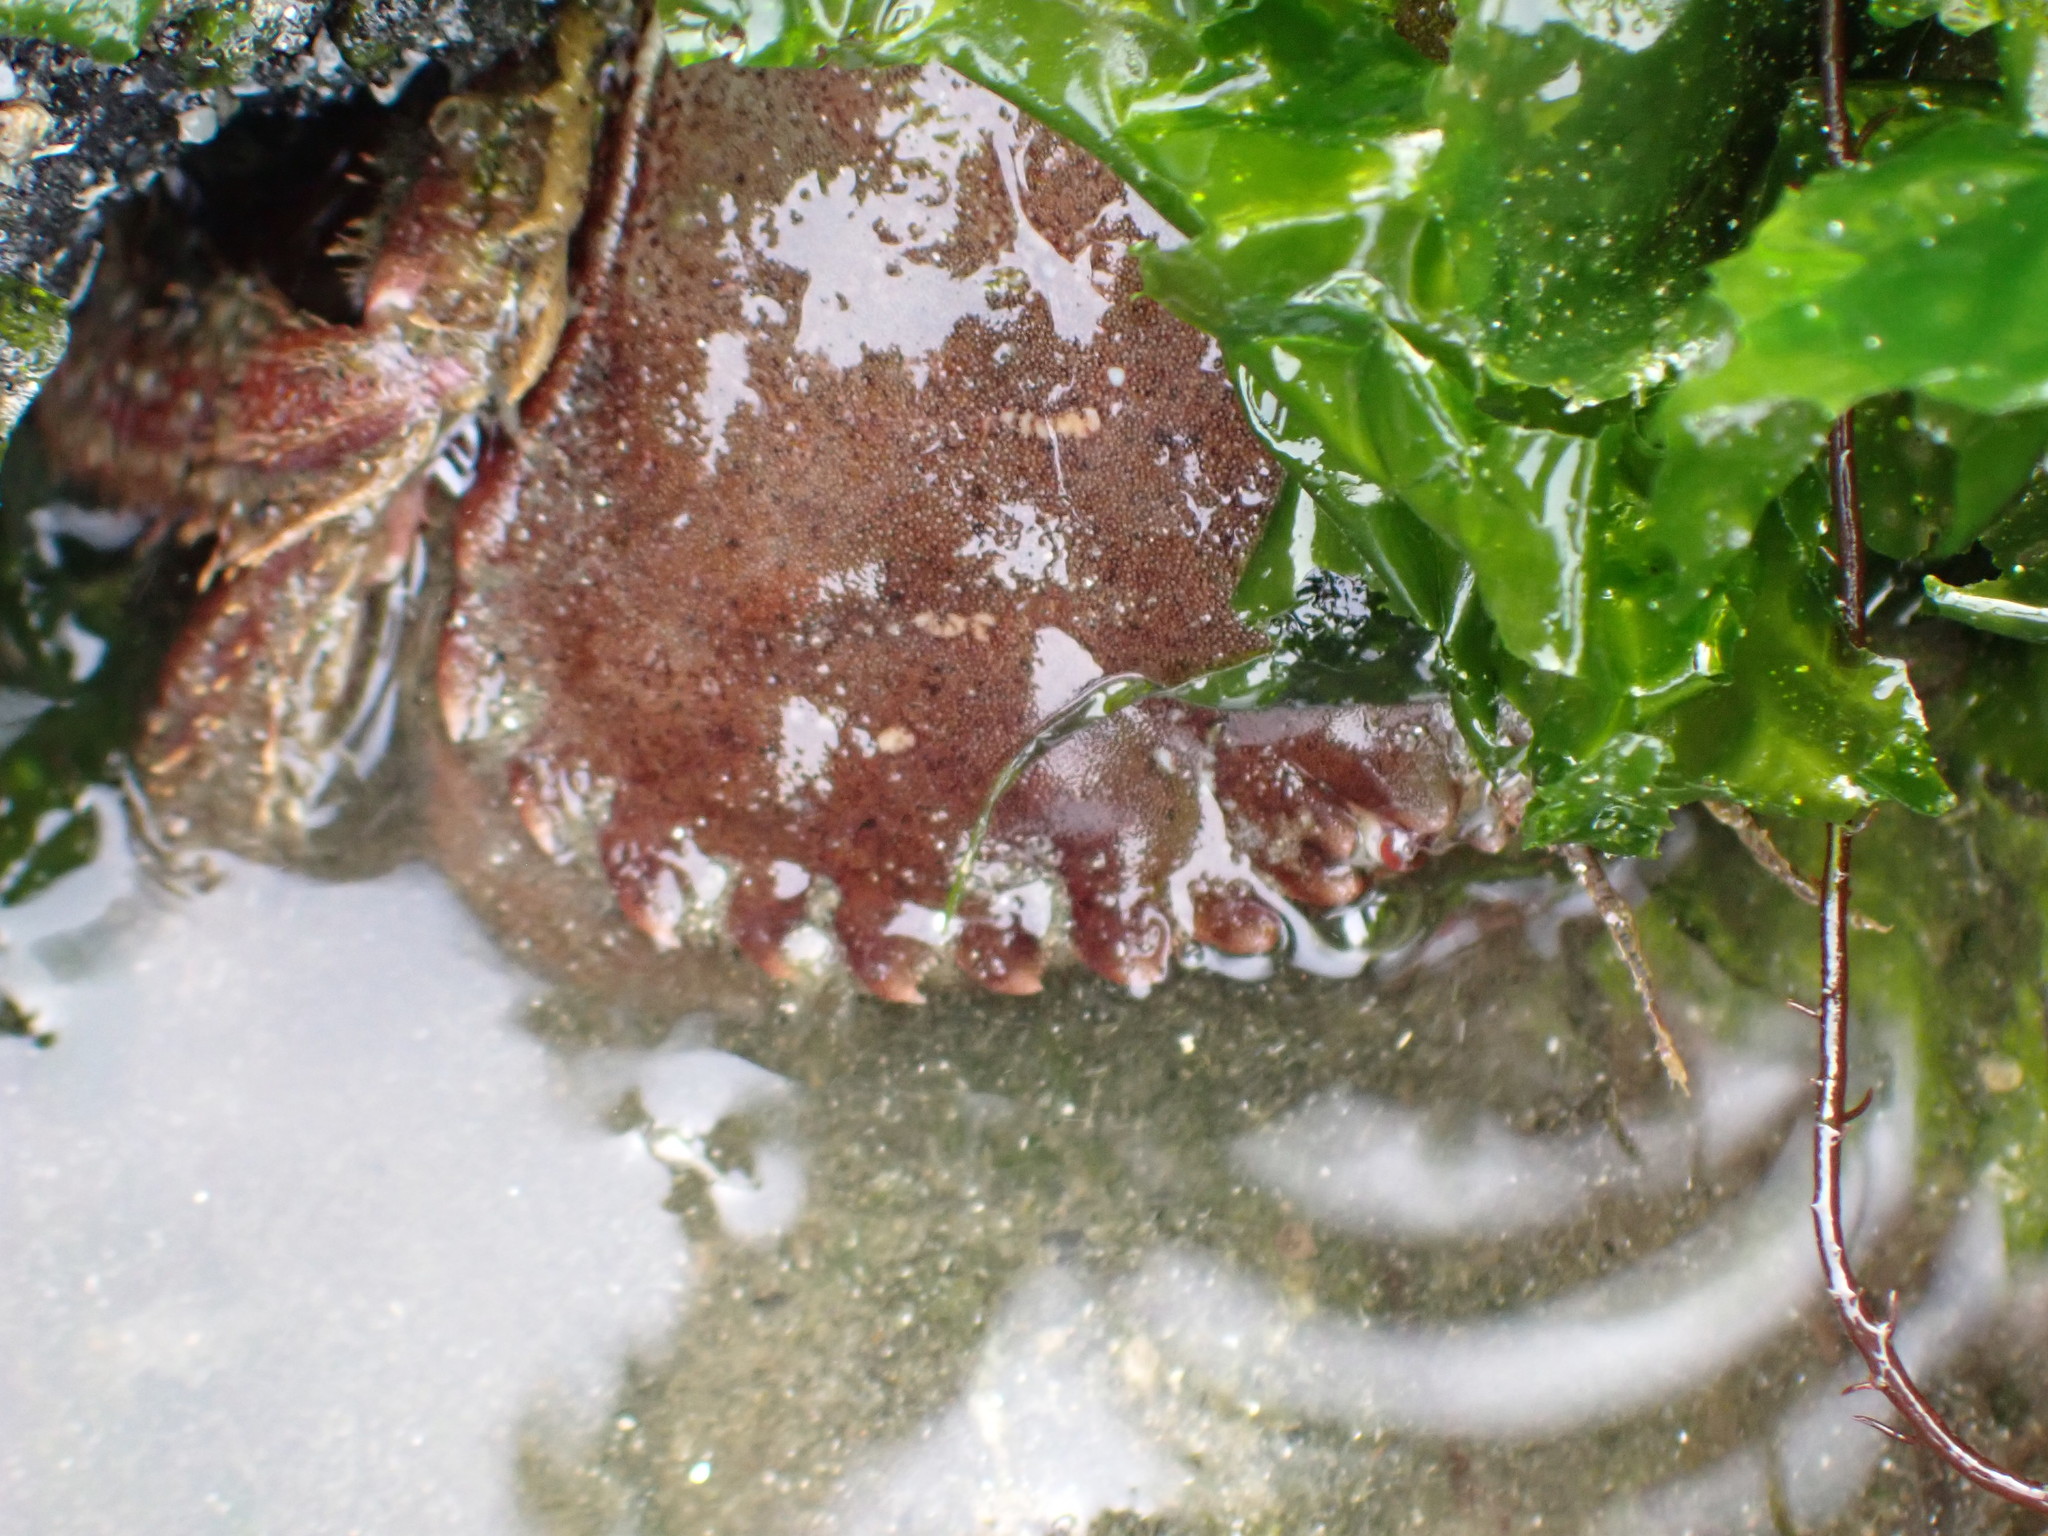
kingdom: Animalia
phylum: Arthropoda
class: Malacostraca
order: Decapoda
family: Cancridae
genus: Romaleon
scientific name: Romaleon antennarium
